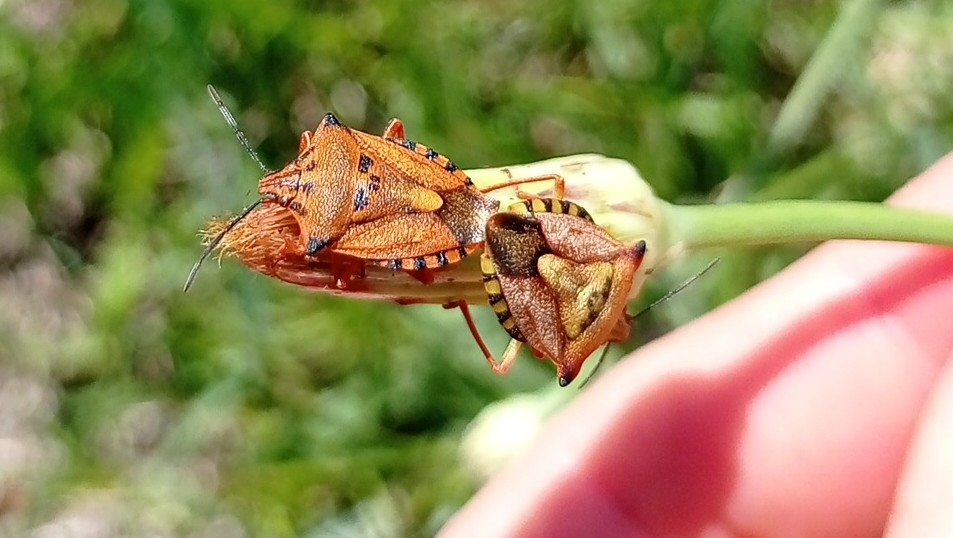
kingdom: Animalia
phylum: Arthropoda
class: Insecta
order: Hemiptera
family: Pentatomidae
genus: Carpocoris
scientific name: Carpocoris mediterraneus
